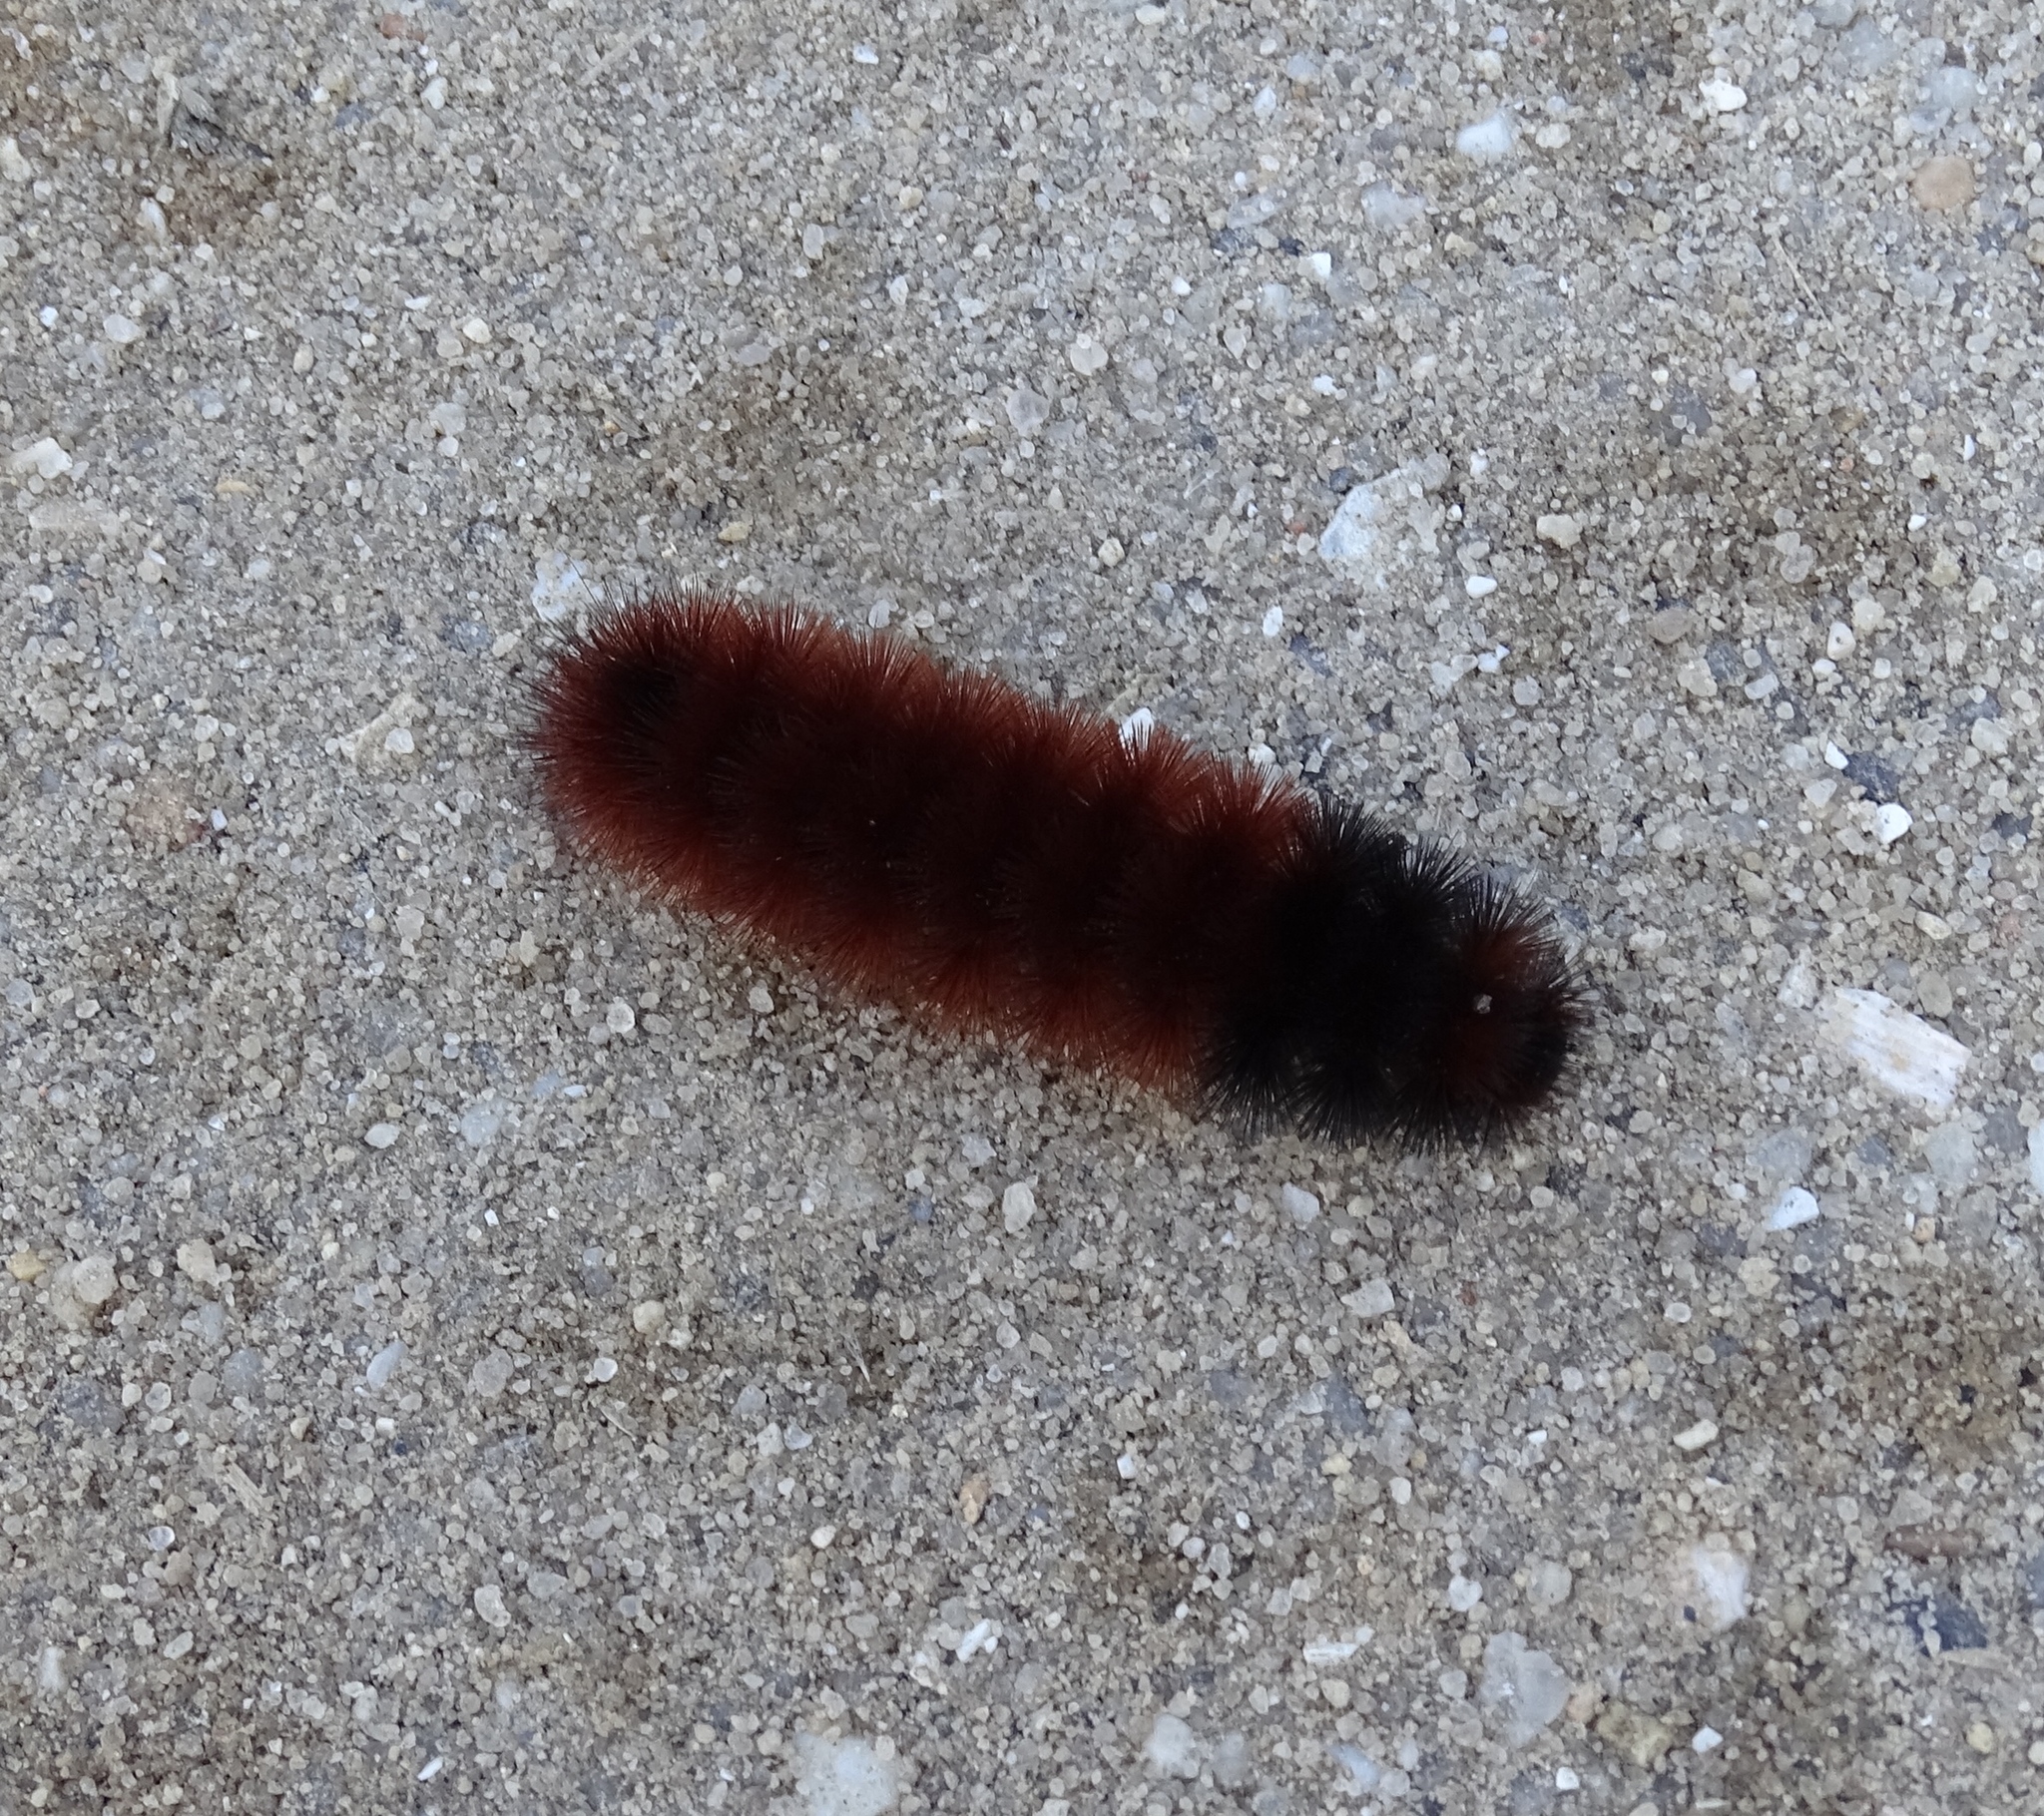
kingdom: Animalia
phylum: Arthropoda
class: Insecta
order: Lepidoptera
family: Erebidae
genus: Pyrrharctia
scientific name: Pyrrharctia isabella
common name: Isabella tiger moth
